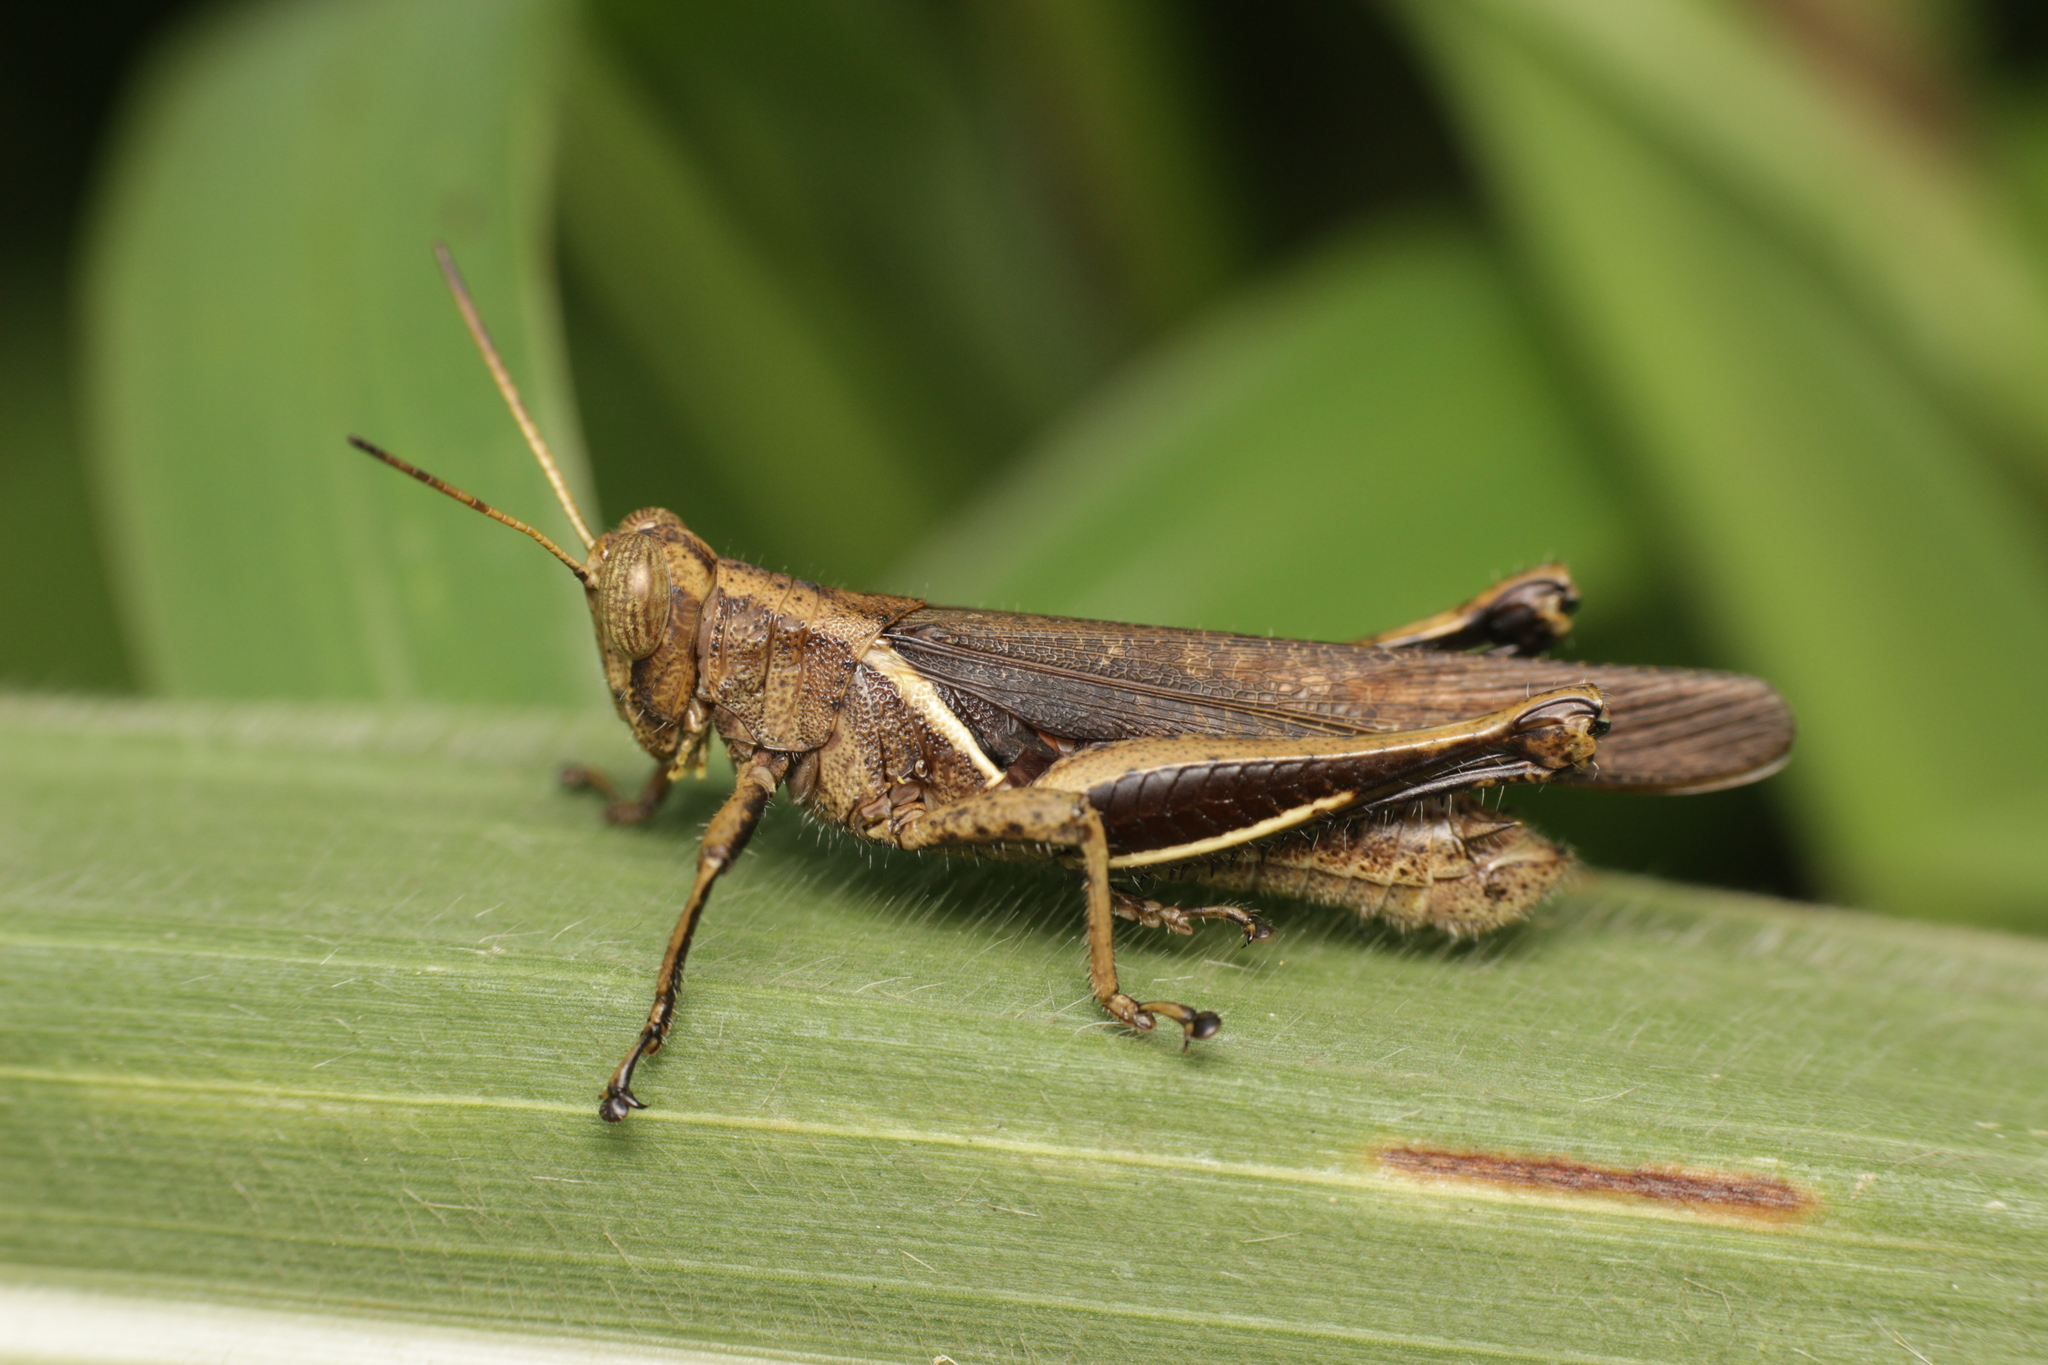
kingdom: Animalia
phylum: Arthropoda
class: Insecta
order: Orthoptera
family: Acrididae
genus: Abracris
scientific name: Abracris flavolineata
